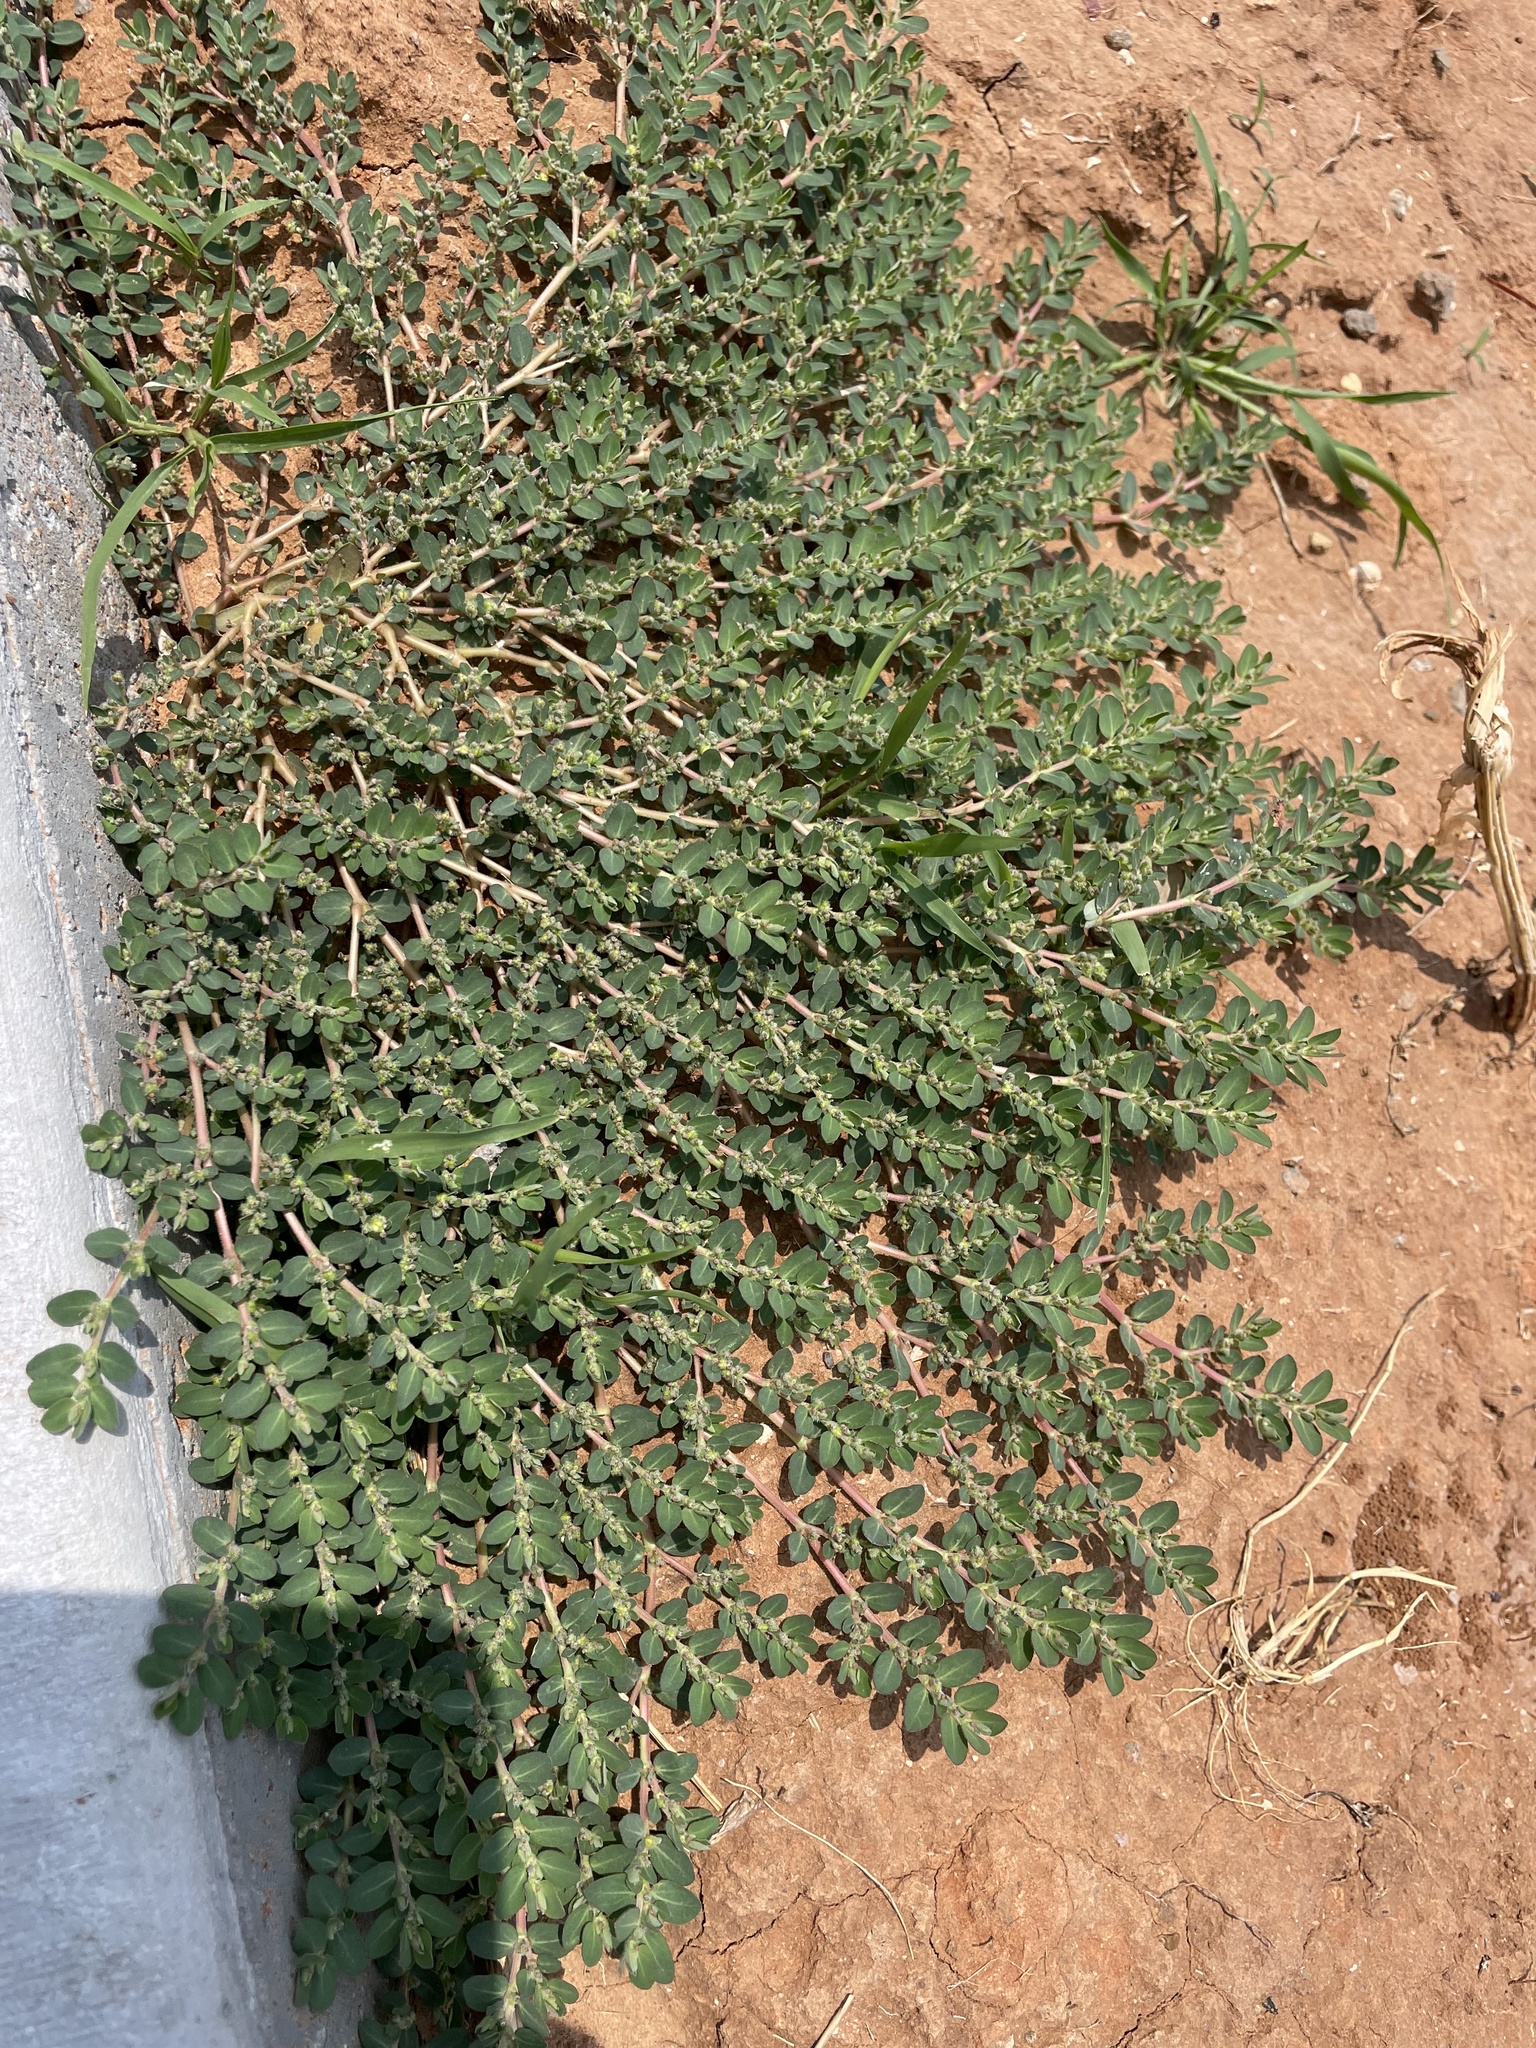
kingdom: Plantae
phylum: Tracheophyta
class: Magnoliopsida
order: Malpighiales
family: Euphorbiaceae
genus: Euphorbia
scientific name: Euphorbia prostrata
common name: Prostrate sandmat
